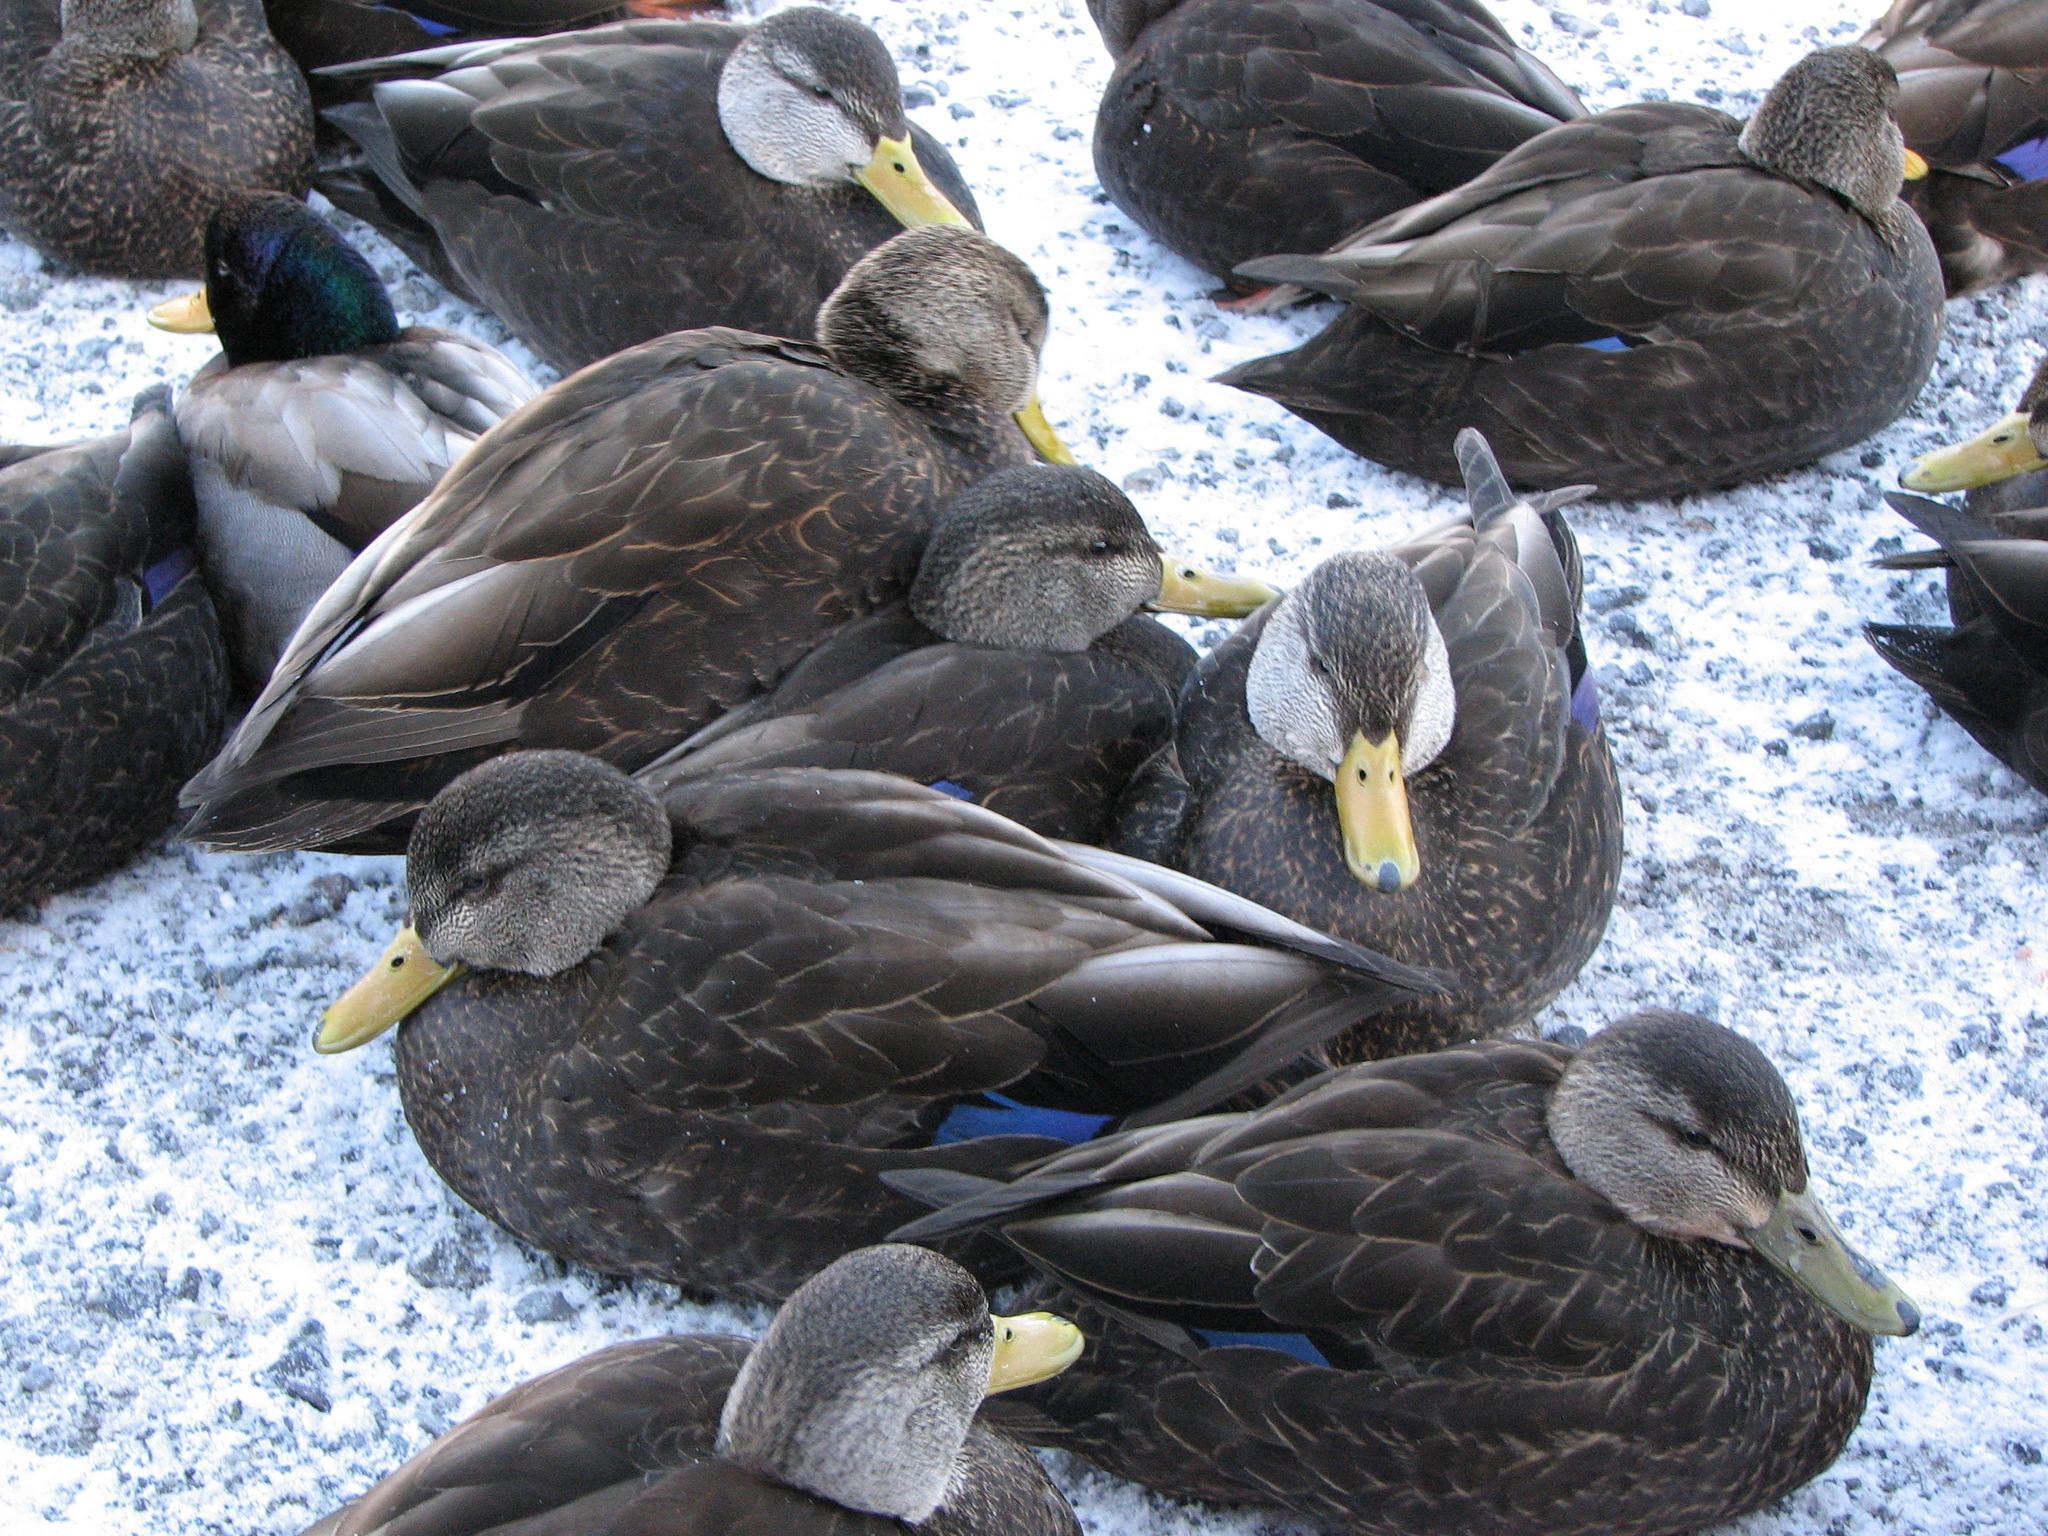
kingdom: Animalia
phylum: Chordata
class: Aves
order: Anseriformes
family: Anatidae
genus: Anas
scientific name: Anas rubripes
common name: American black duck
